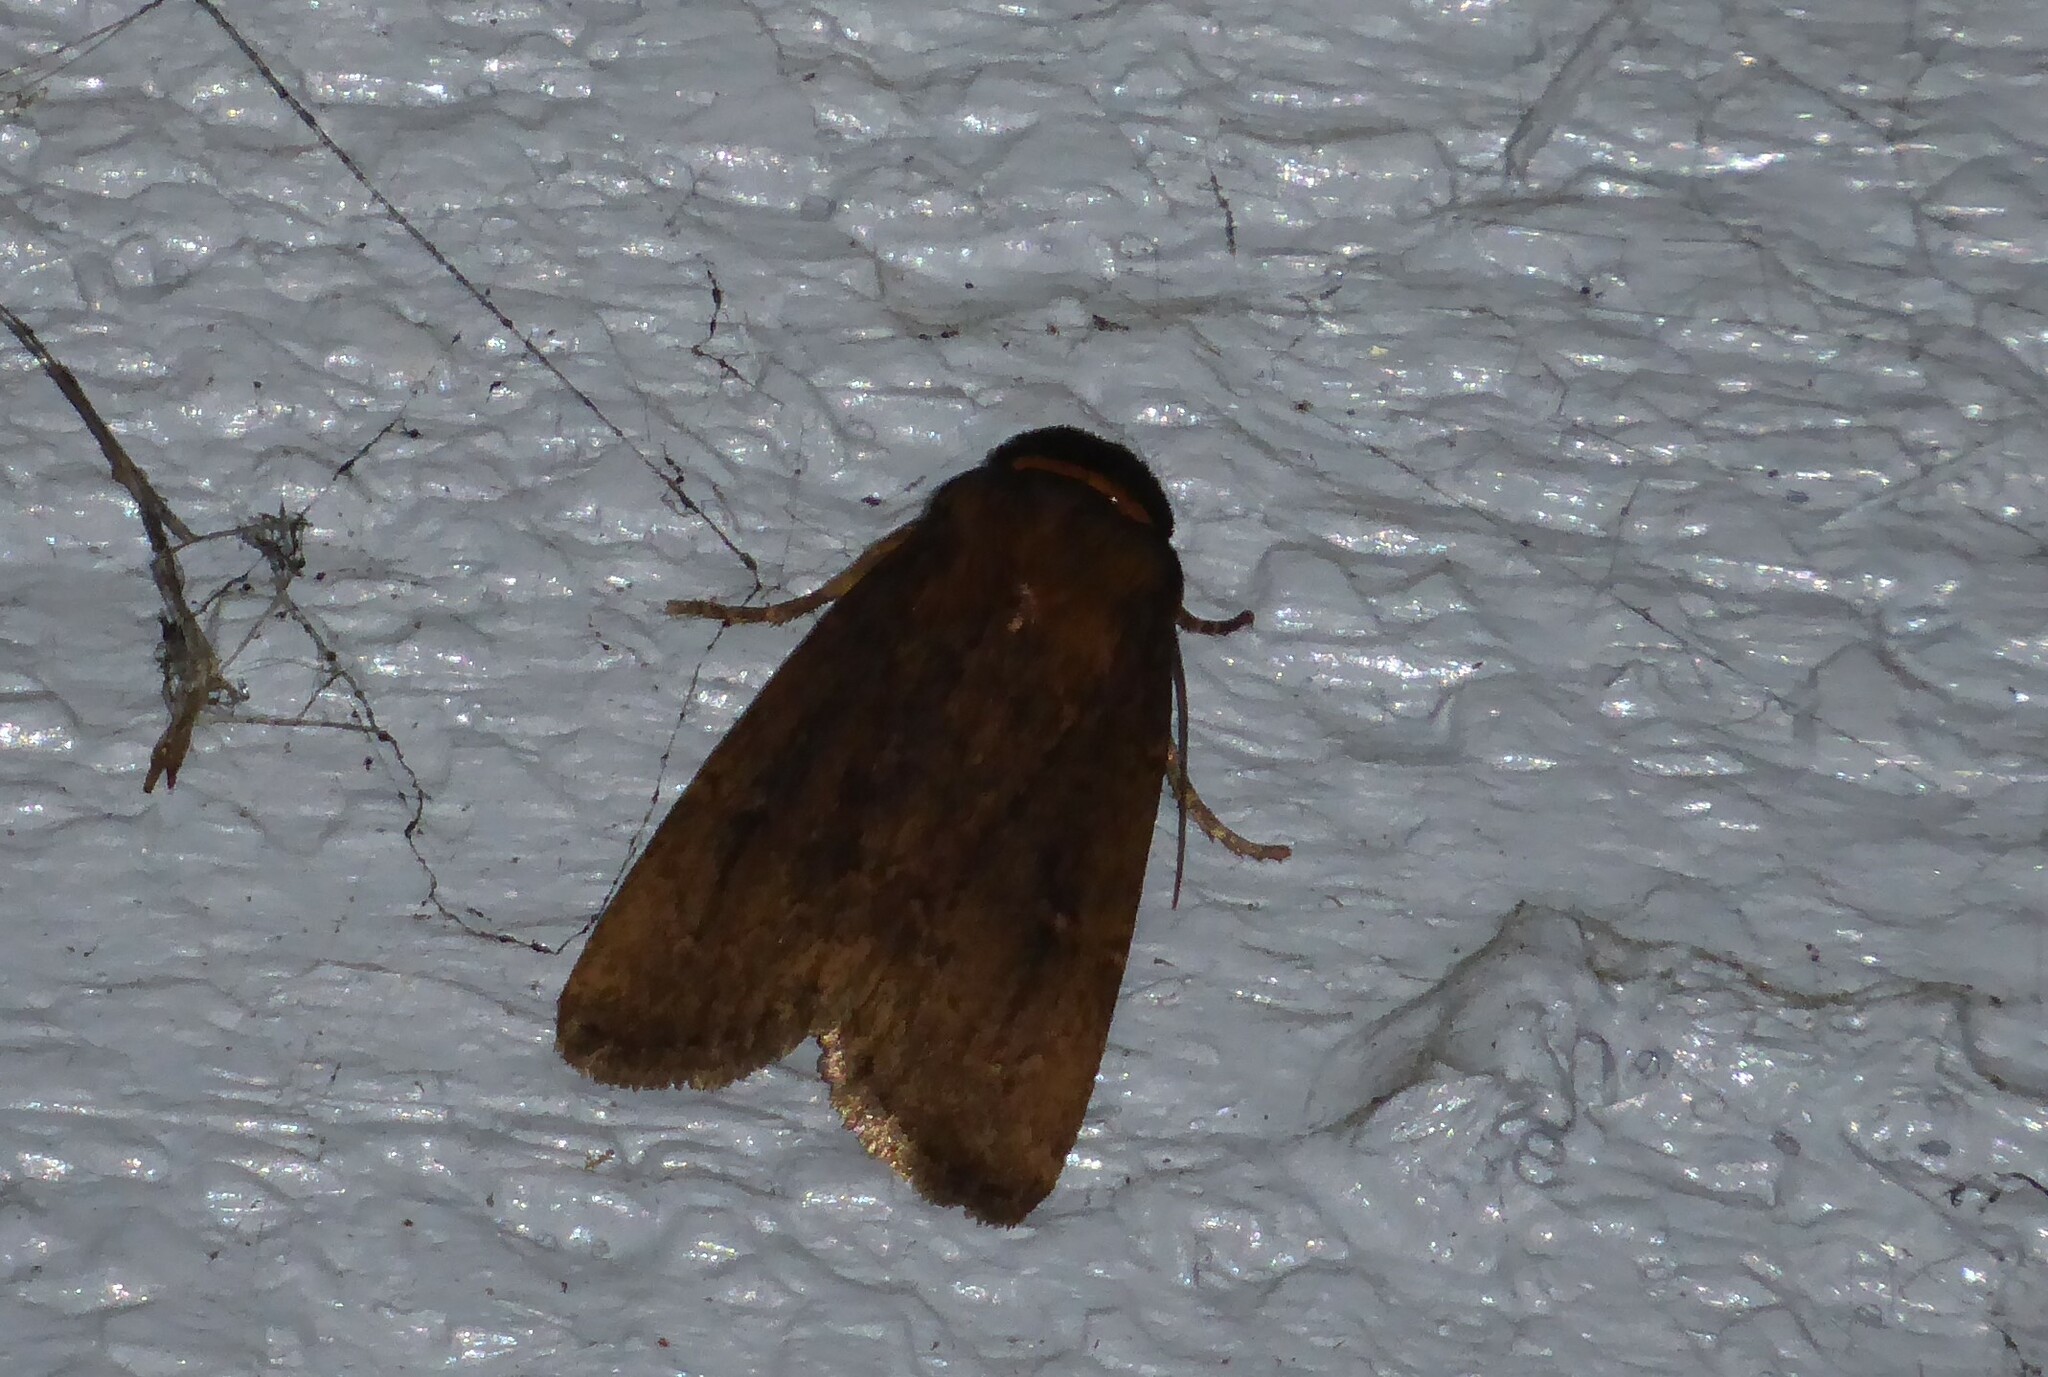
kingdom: Animalia
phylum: Arthropoda
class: Insecta
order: Lepidoptera
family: Noctuidae
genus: Bityla
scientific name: Bityla defigurata
